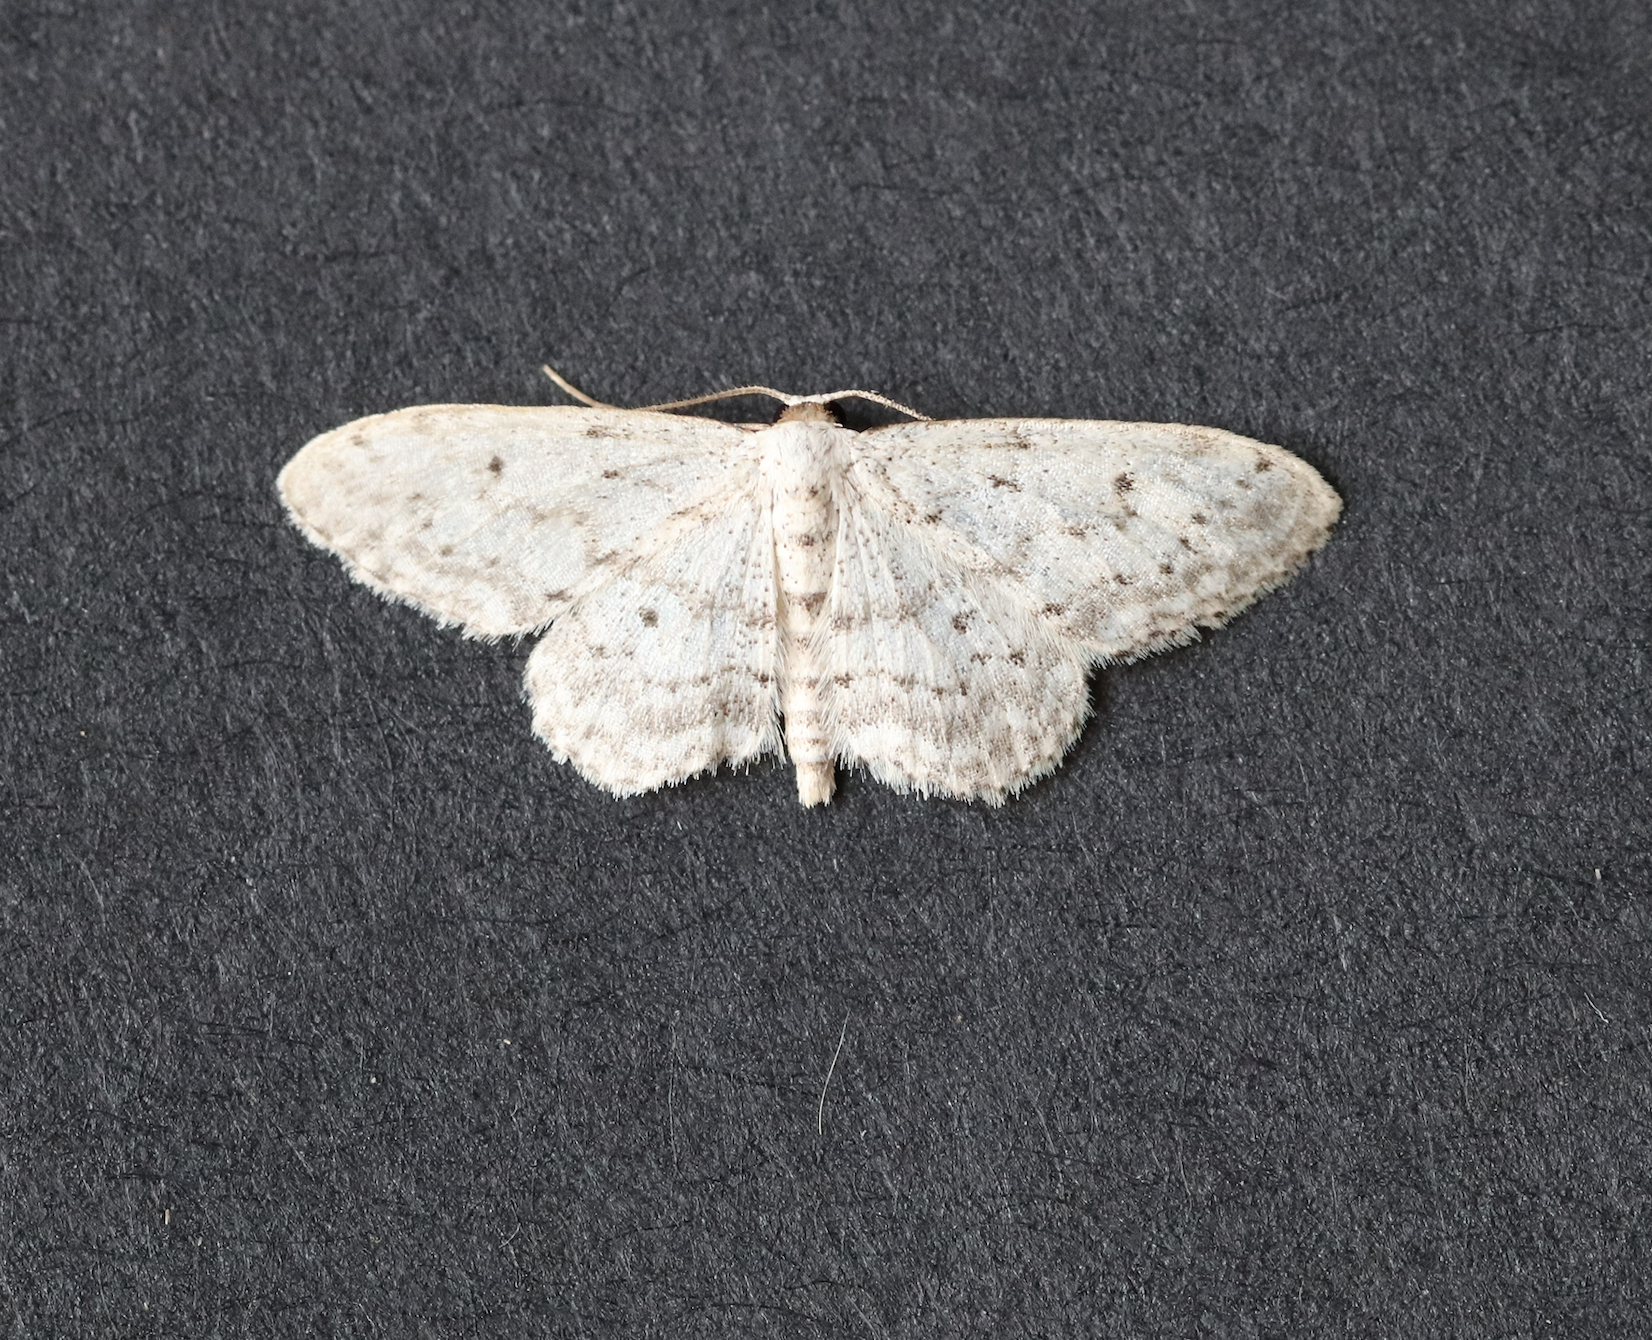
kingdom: Animalia
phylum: Arthropoda
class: Insecta
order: Lepidoptera
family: Geometridae
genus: Idaea
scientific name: Idaea seriata
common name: Small dusty wave
